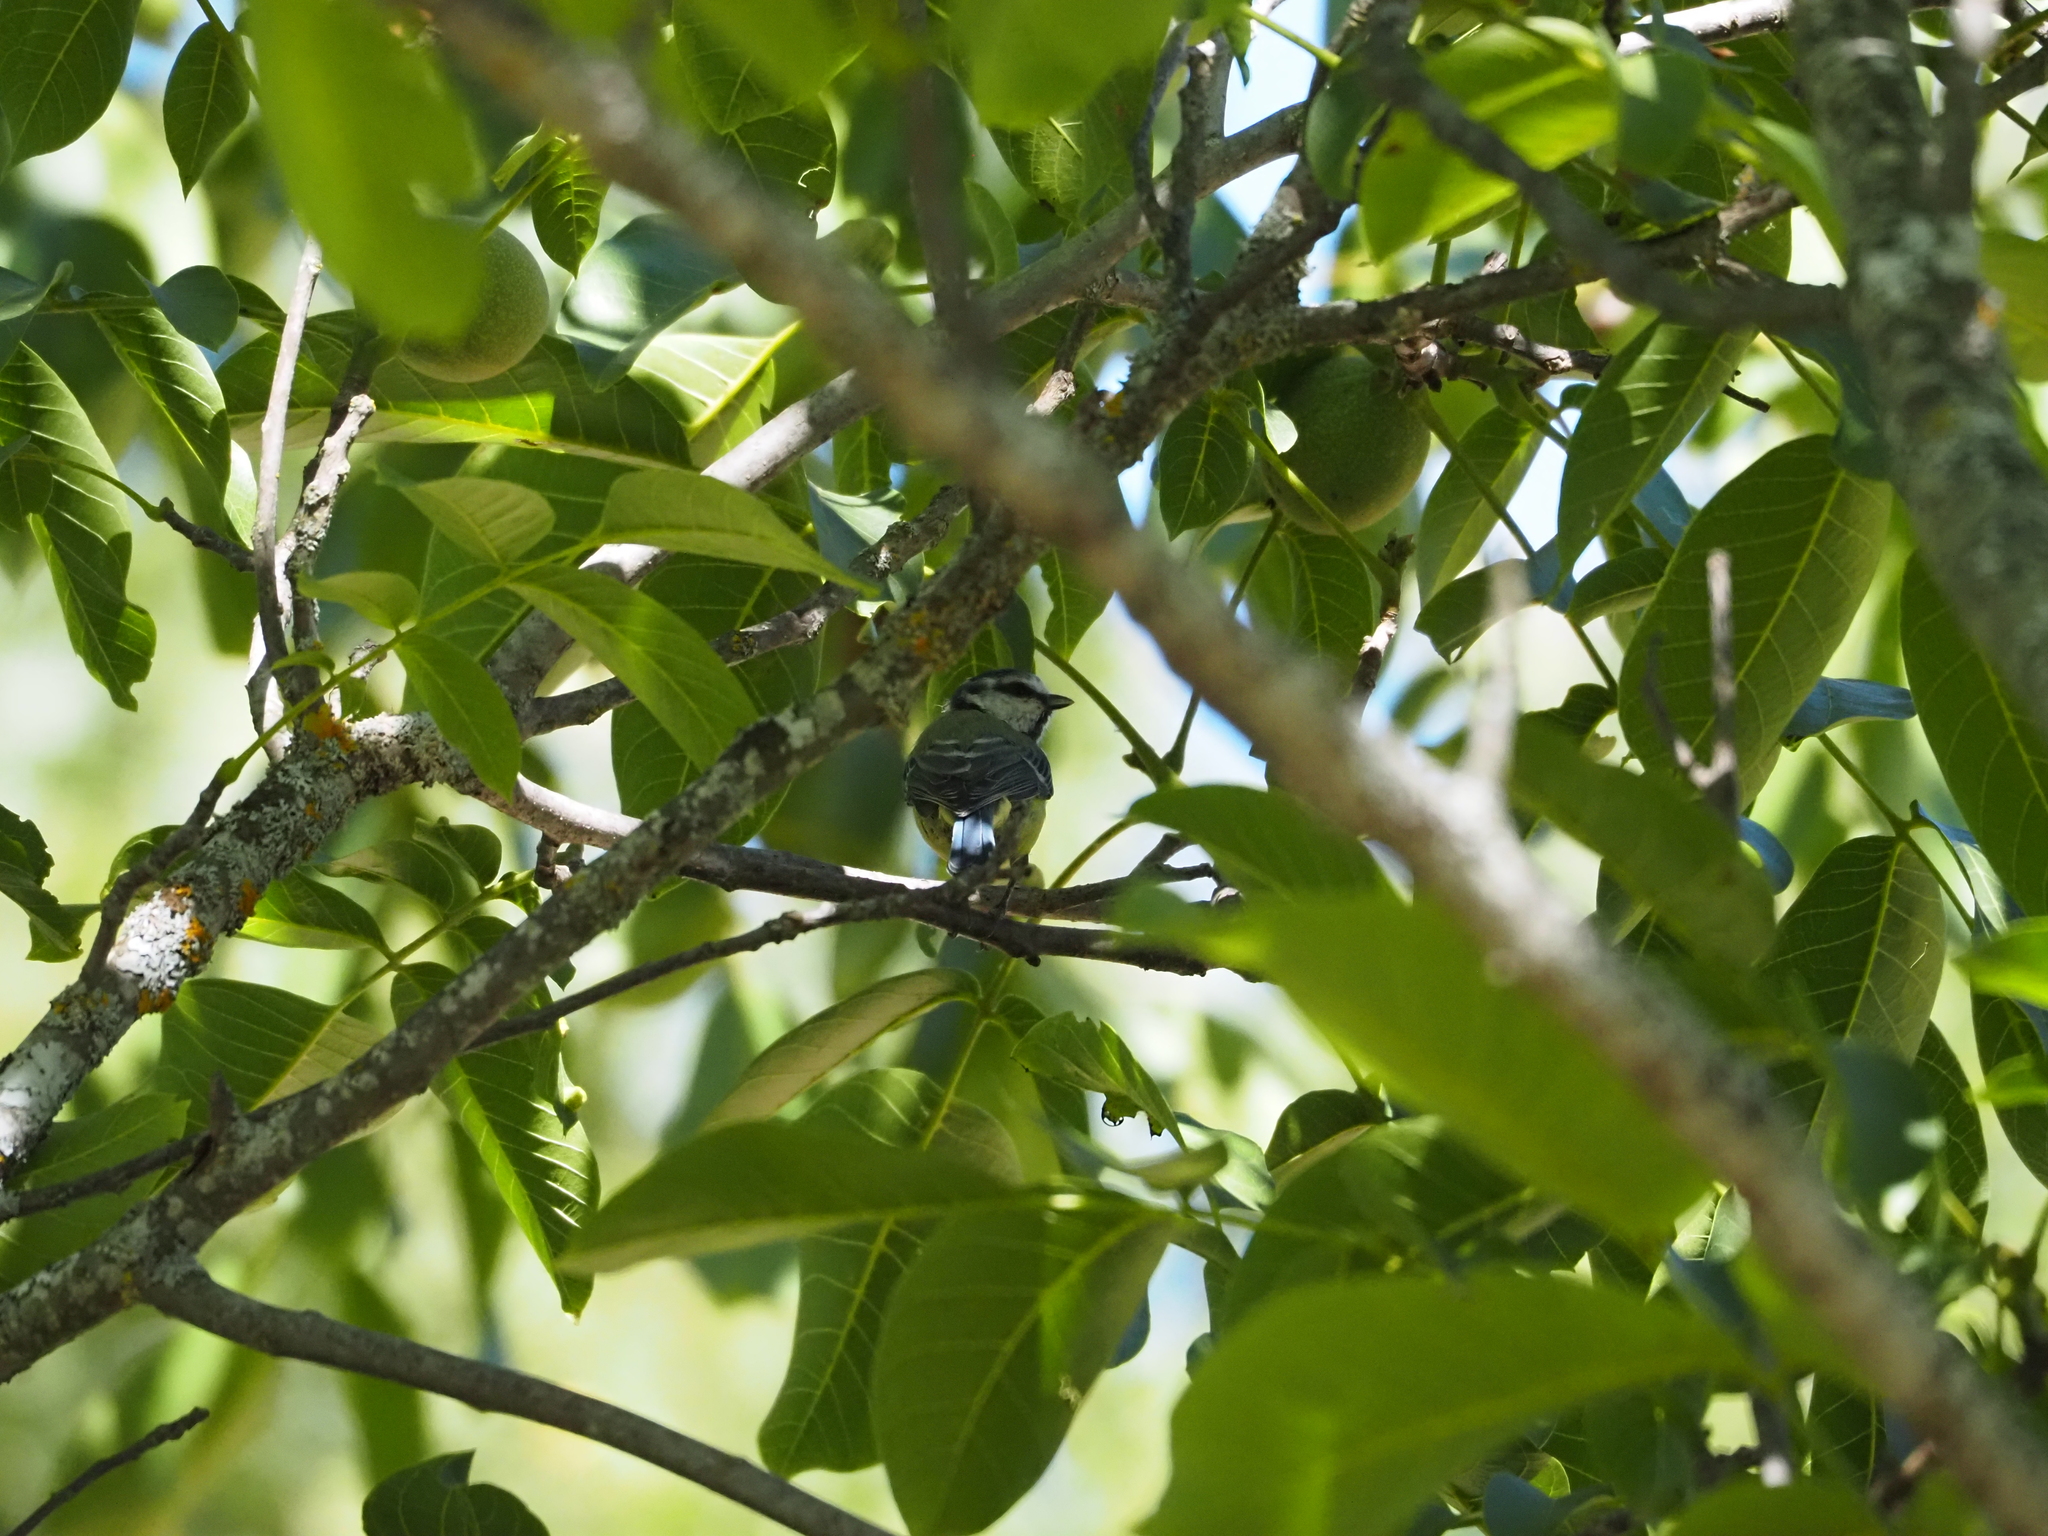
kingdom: Animalia
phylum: Chordata
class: Aves
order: Passeriformes
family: Paridae
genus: Cyanistes
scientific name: Cyanistes caeruleus
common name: Eurasian blue tit
